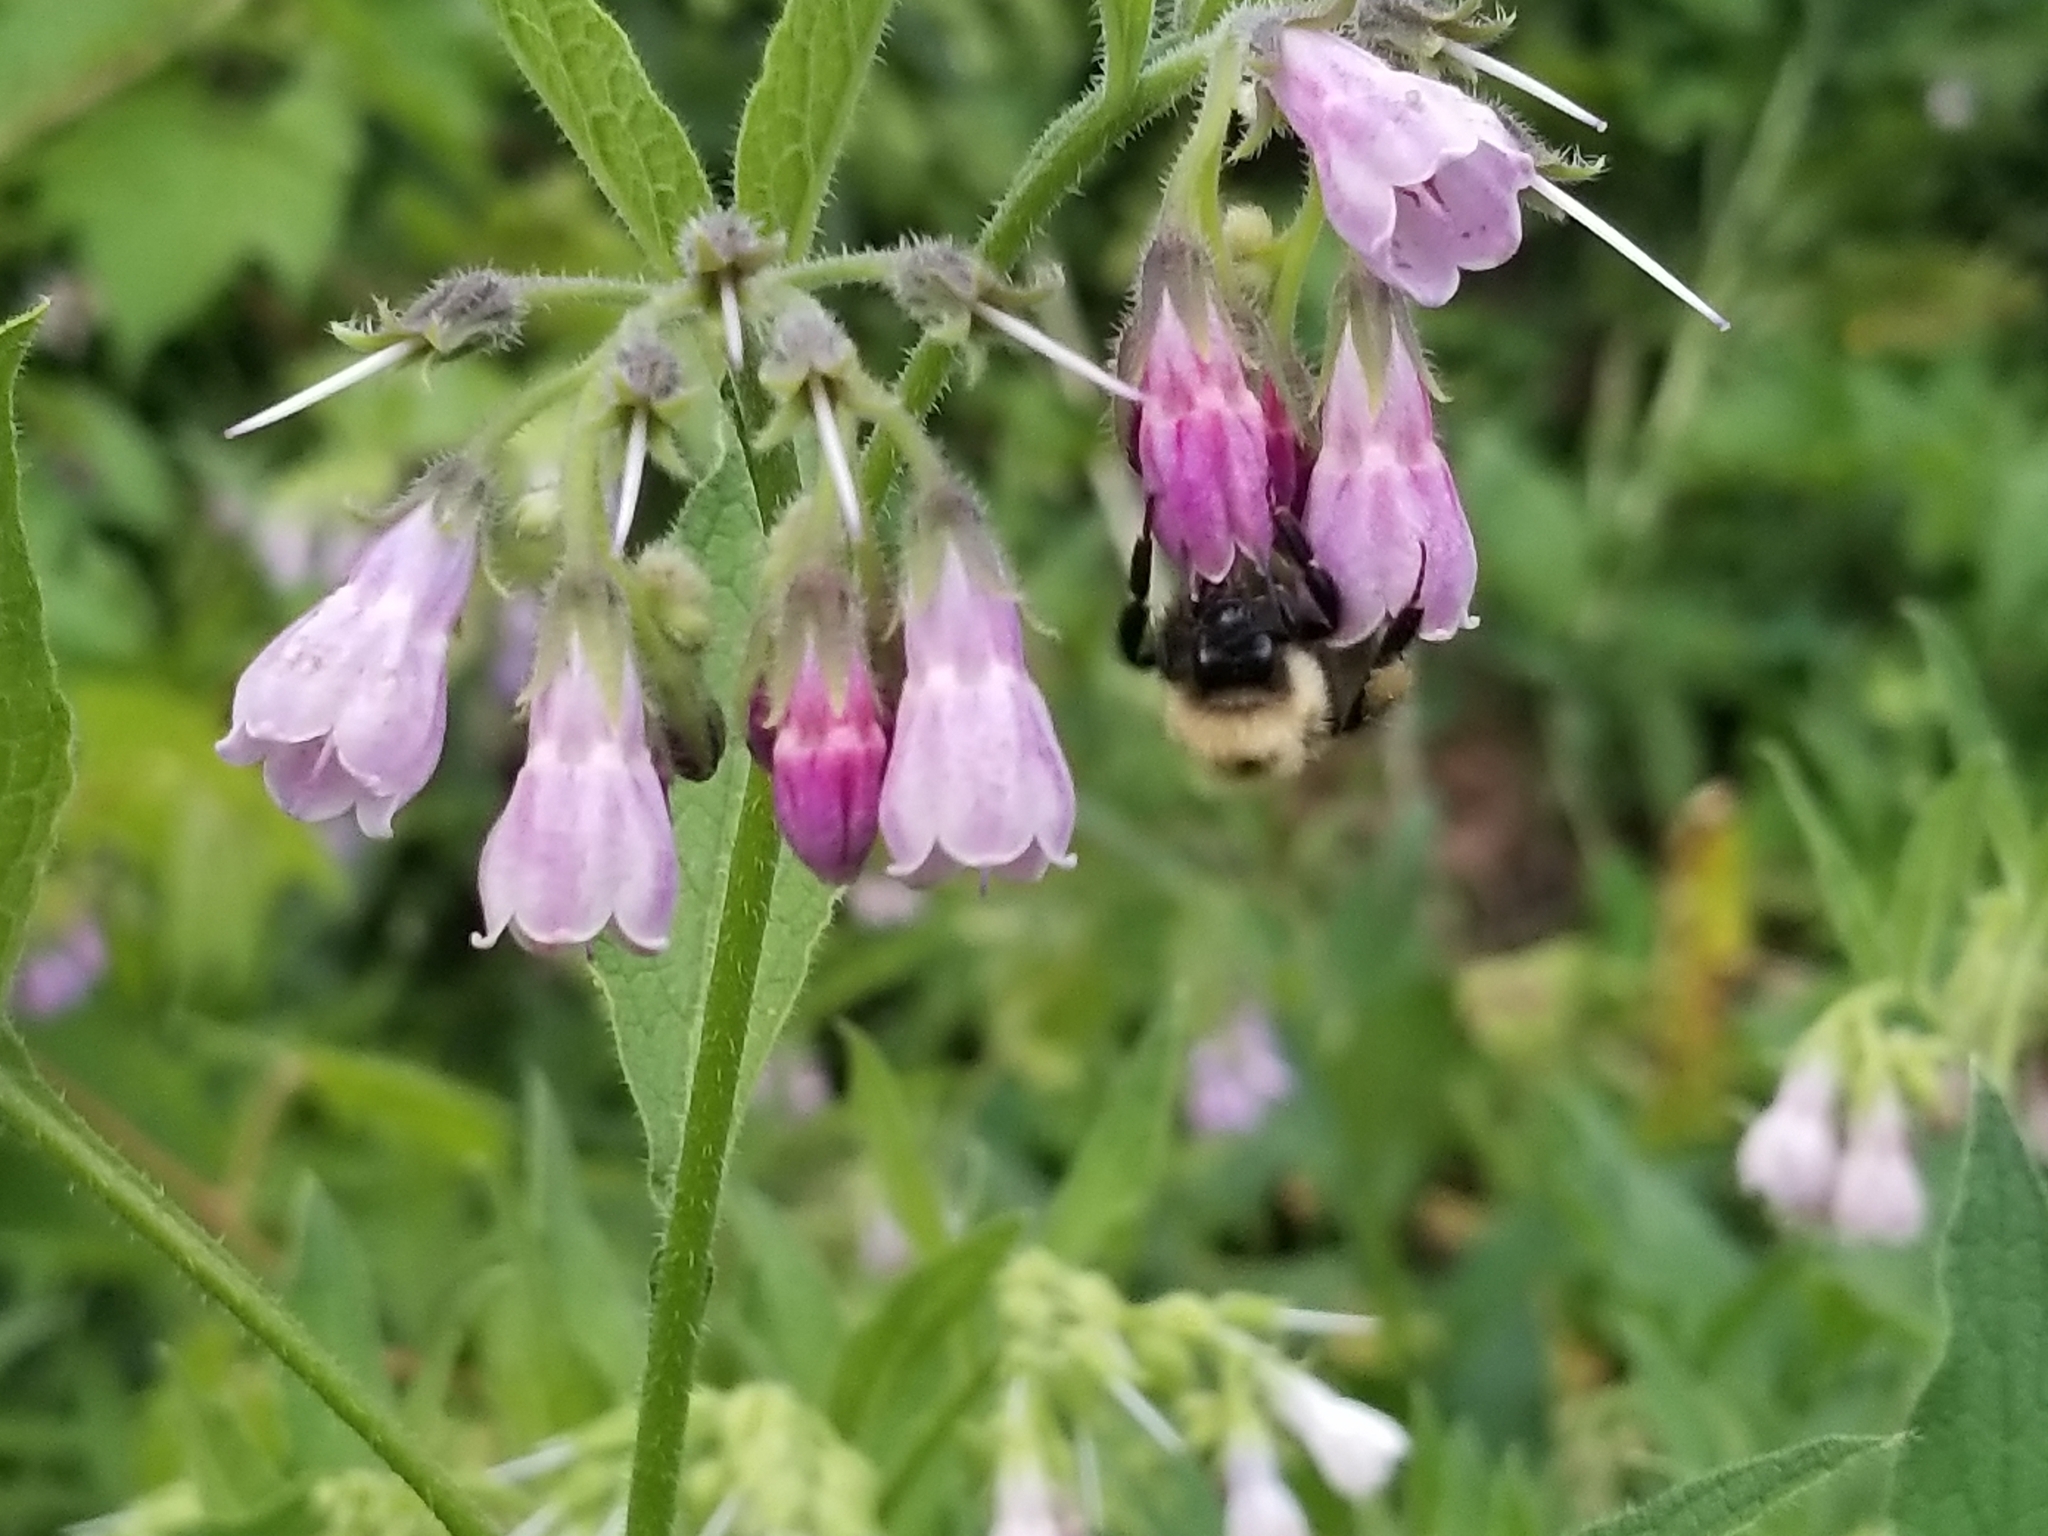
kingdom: Plantae
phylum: Tracheophyta
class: Magnoliopsida
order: Boraginales
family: Boraginaceae
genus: Symphytum
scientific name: Symphytum officinale
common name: Common comfrey
